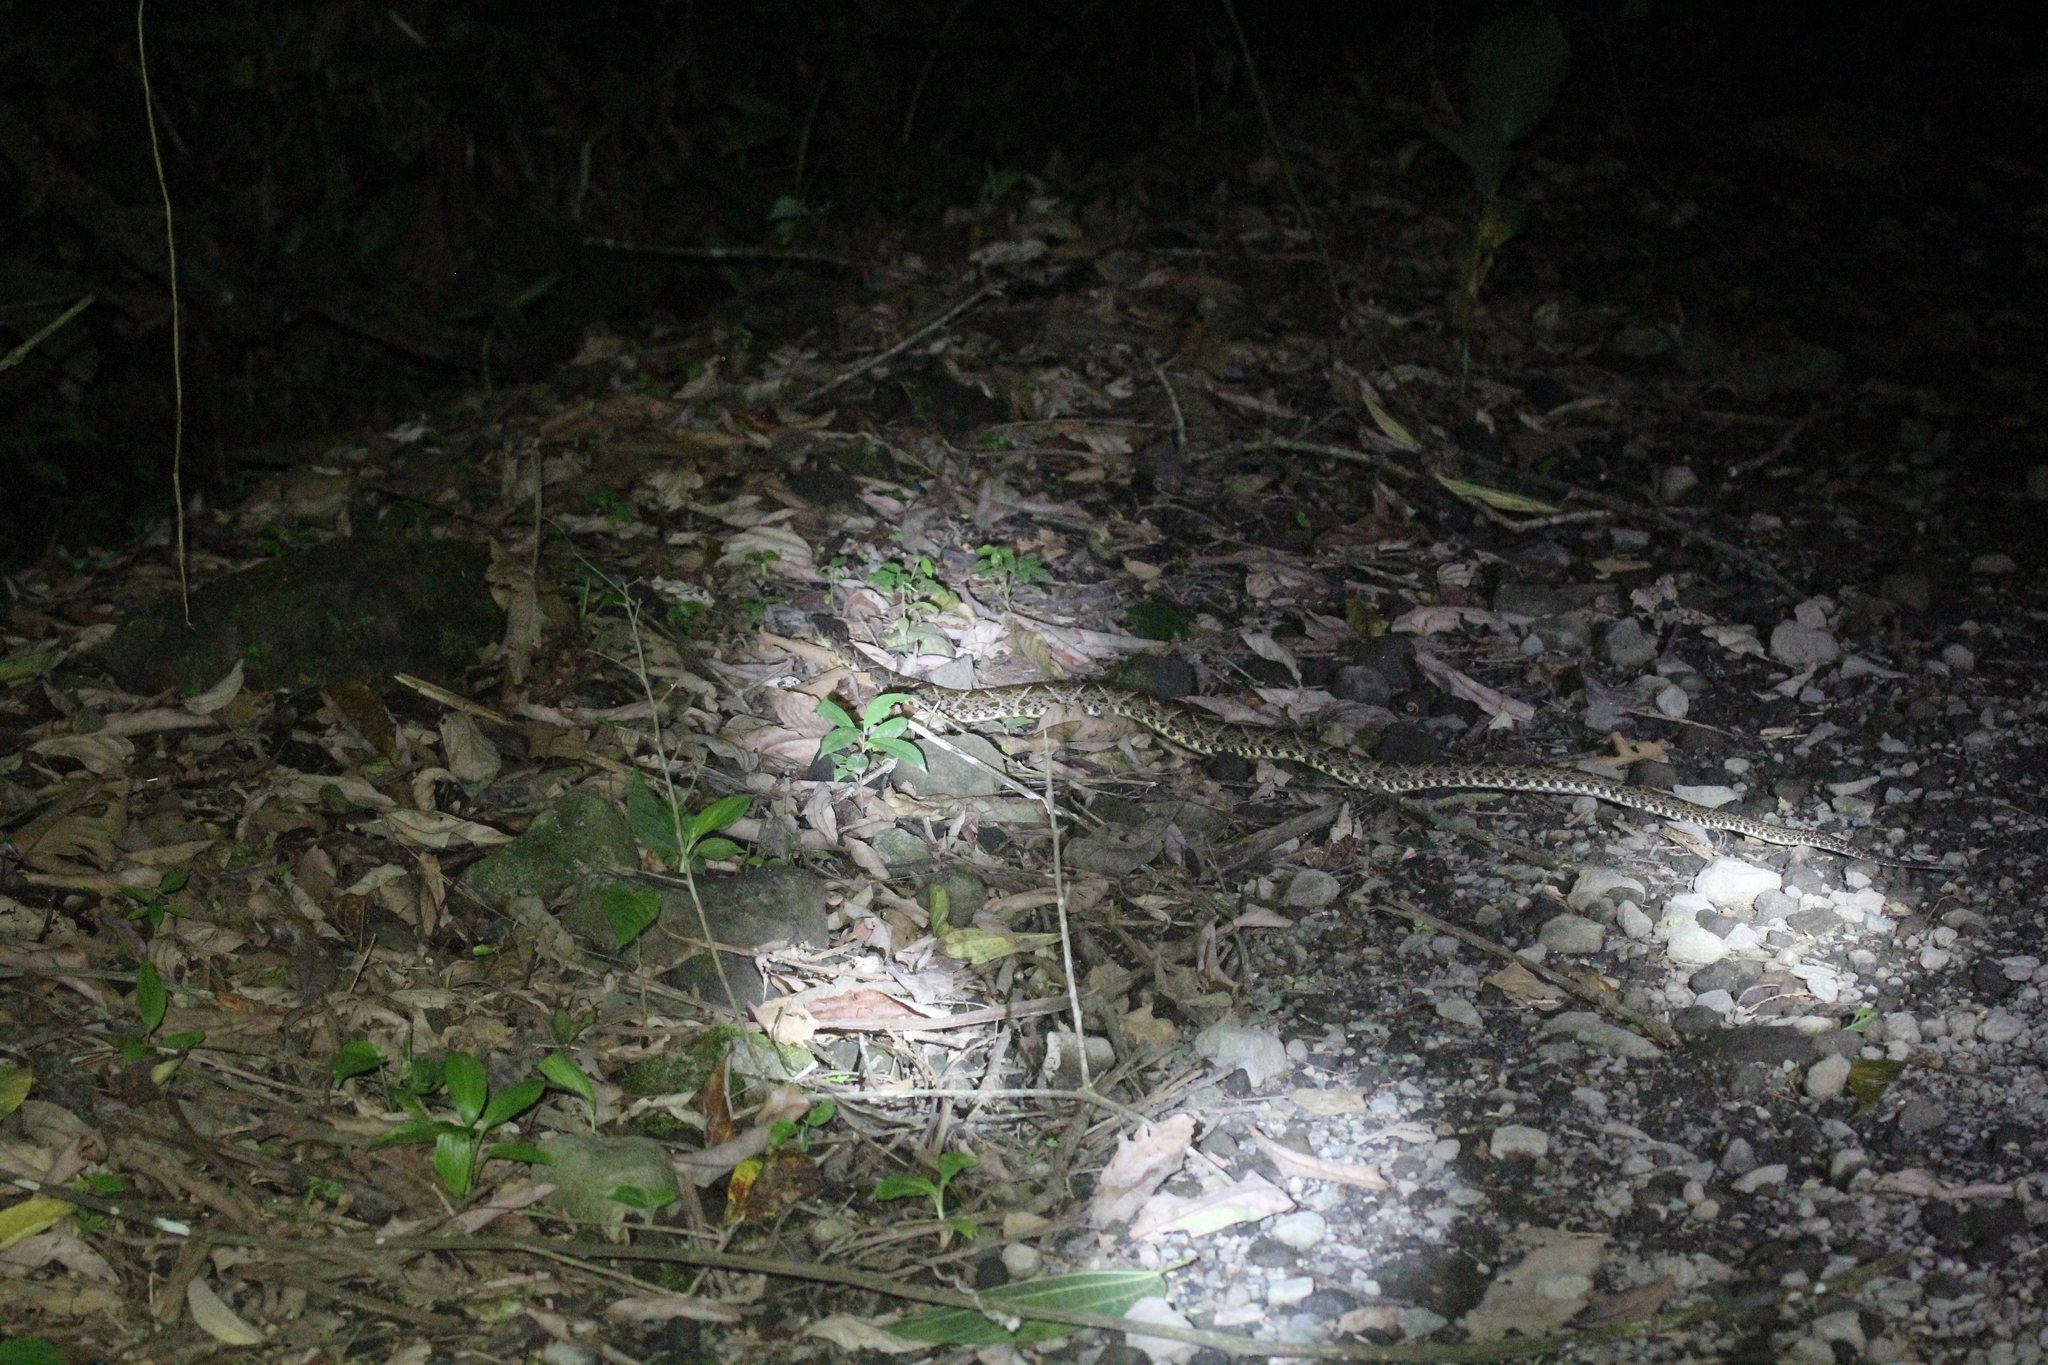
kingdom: Animalia
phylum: Chordata
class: Squamata
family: Viperidae
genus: Bothrops
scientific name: Bothrops asper
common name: Terciopelo
